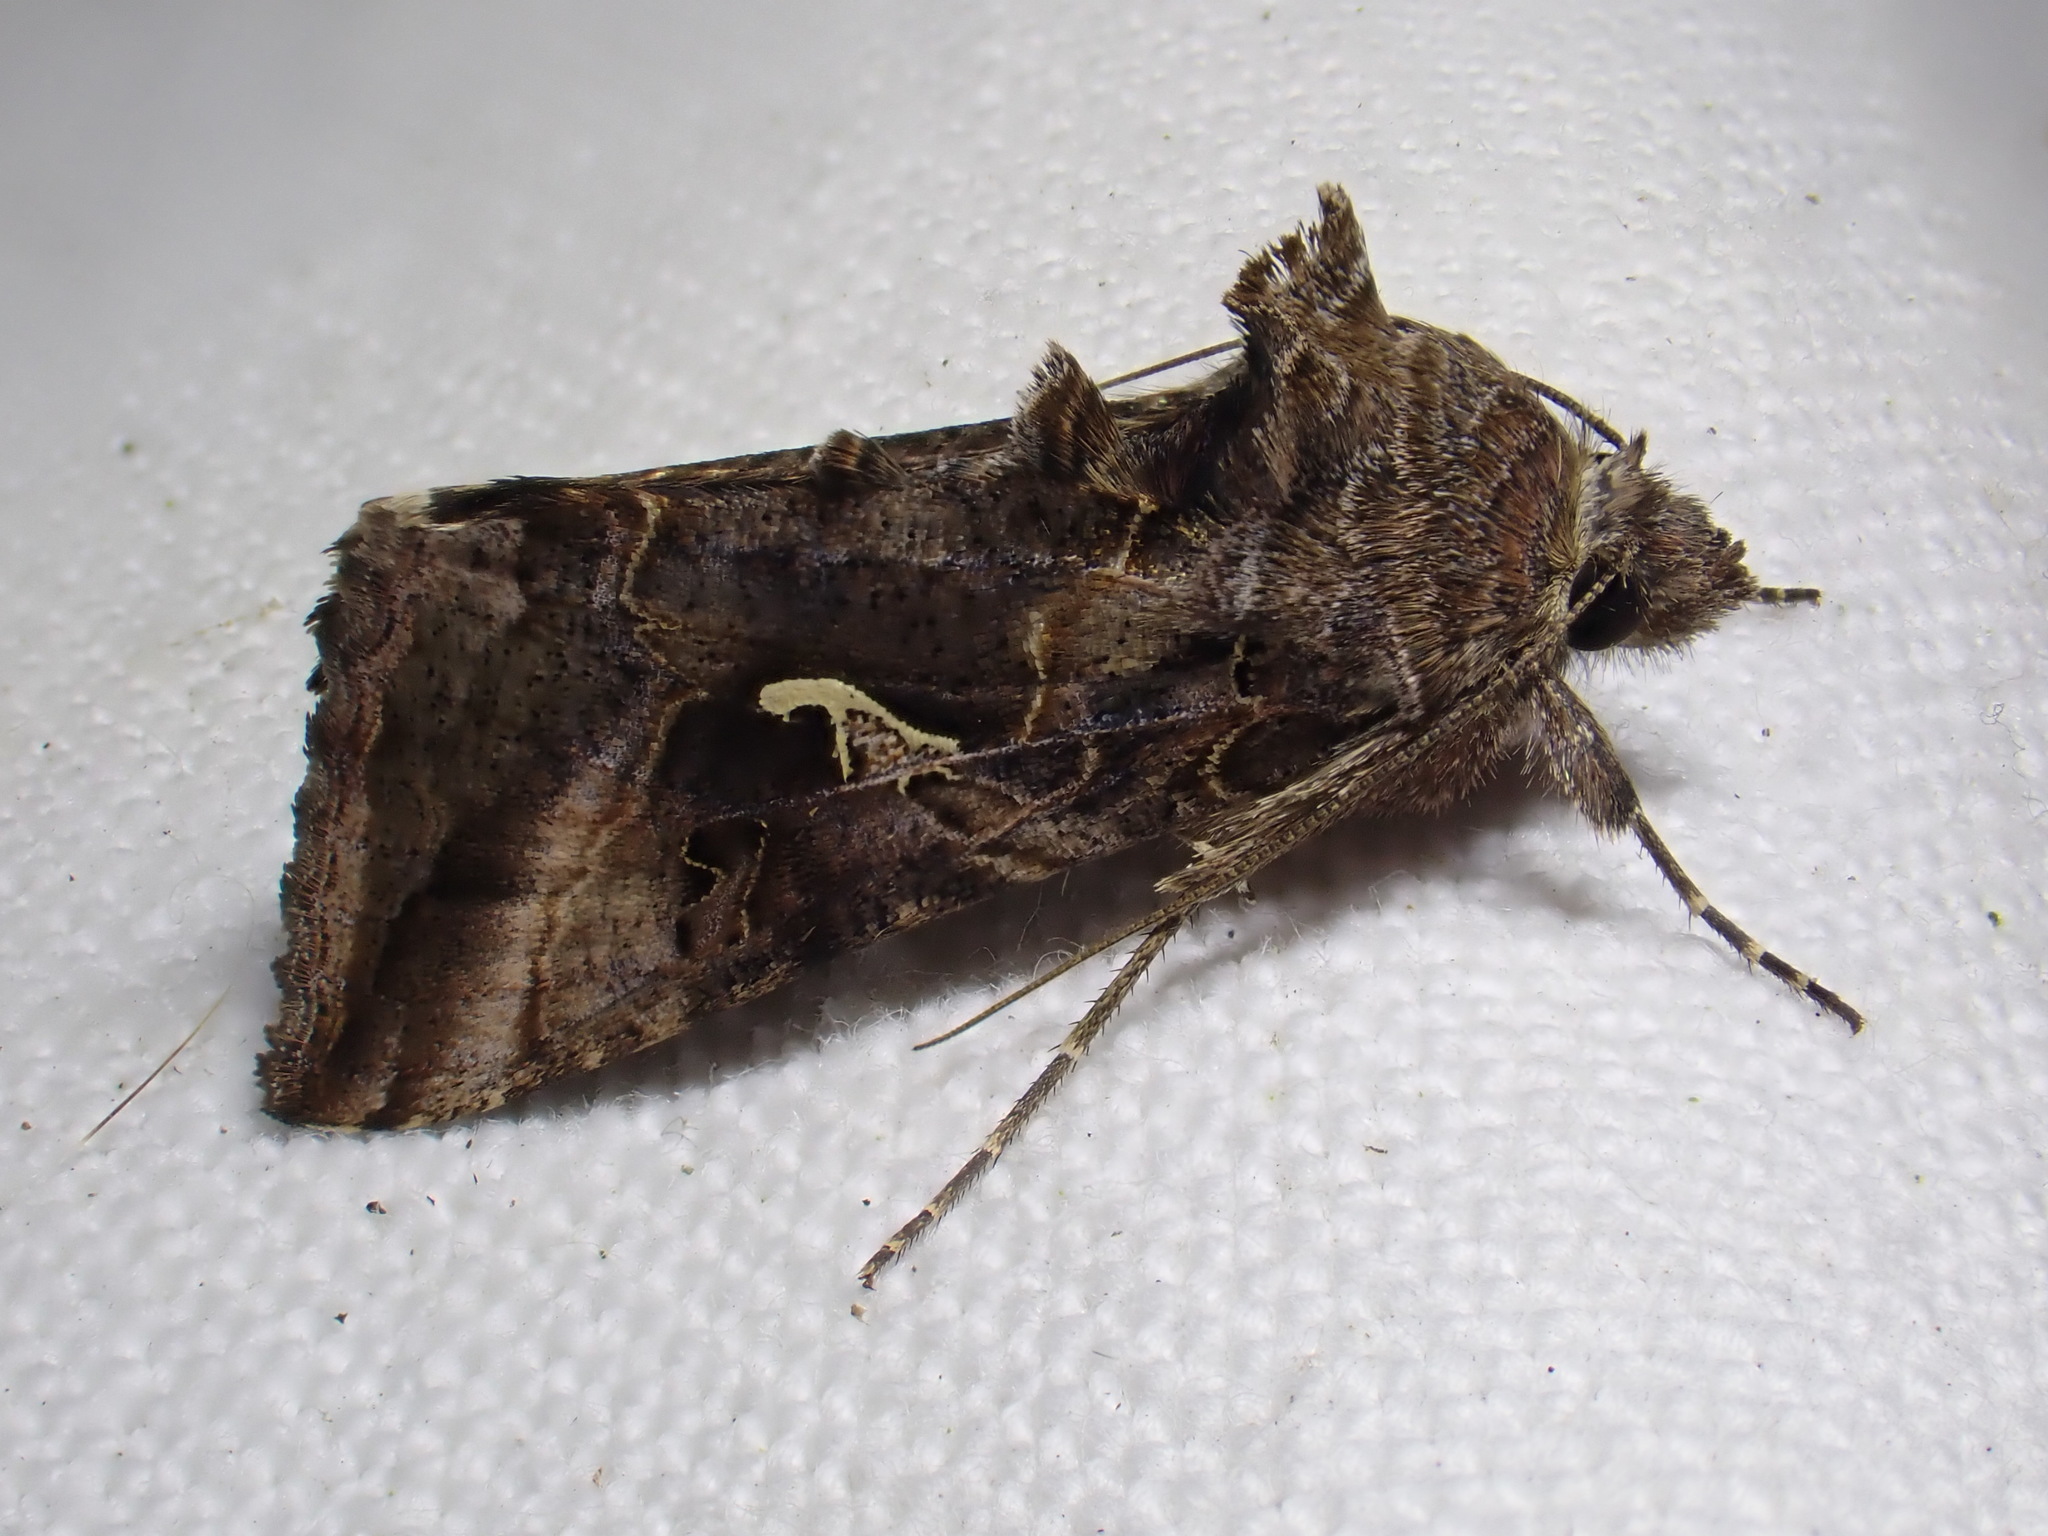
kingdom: Animalia
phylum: Arthropoda
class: Insecta
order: Lepidoptera
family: Noctuidae
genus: Autographa
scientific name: Autographa gamma
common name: Silver y
